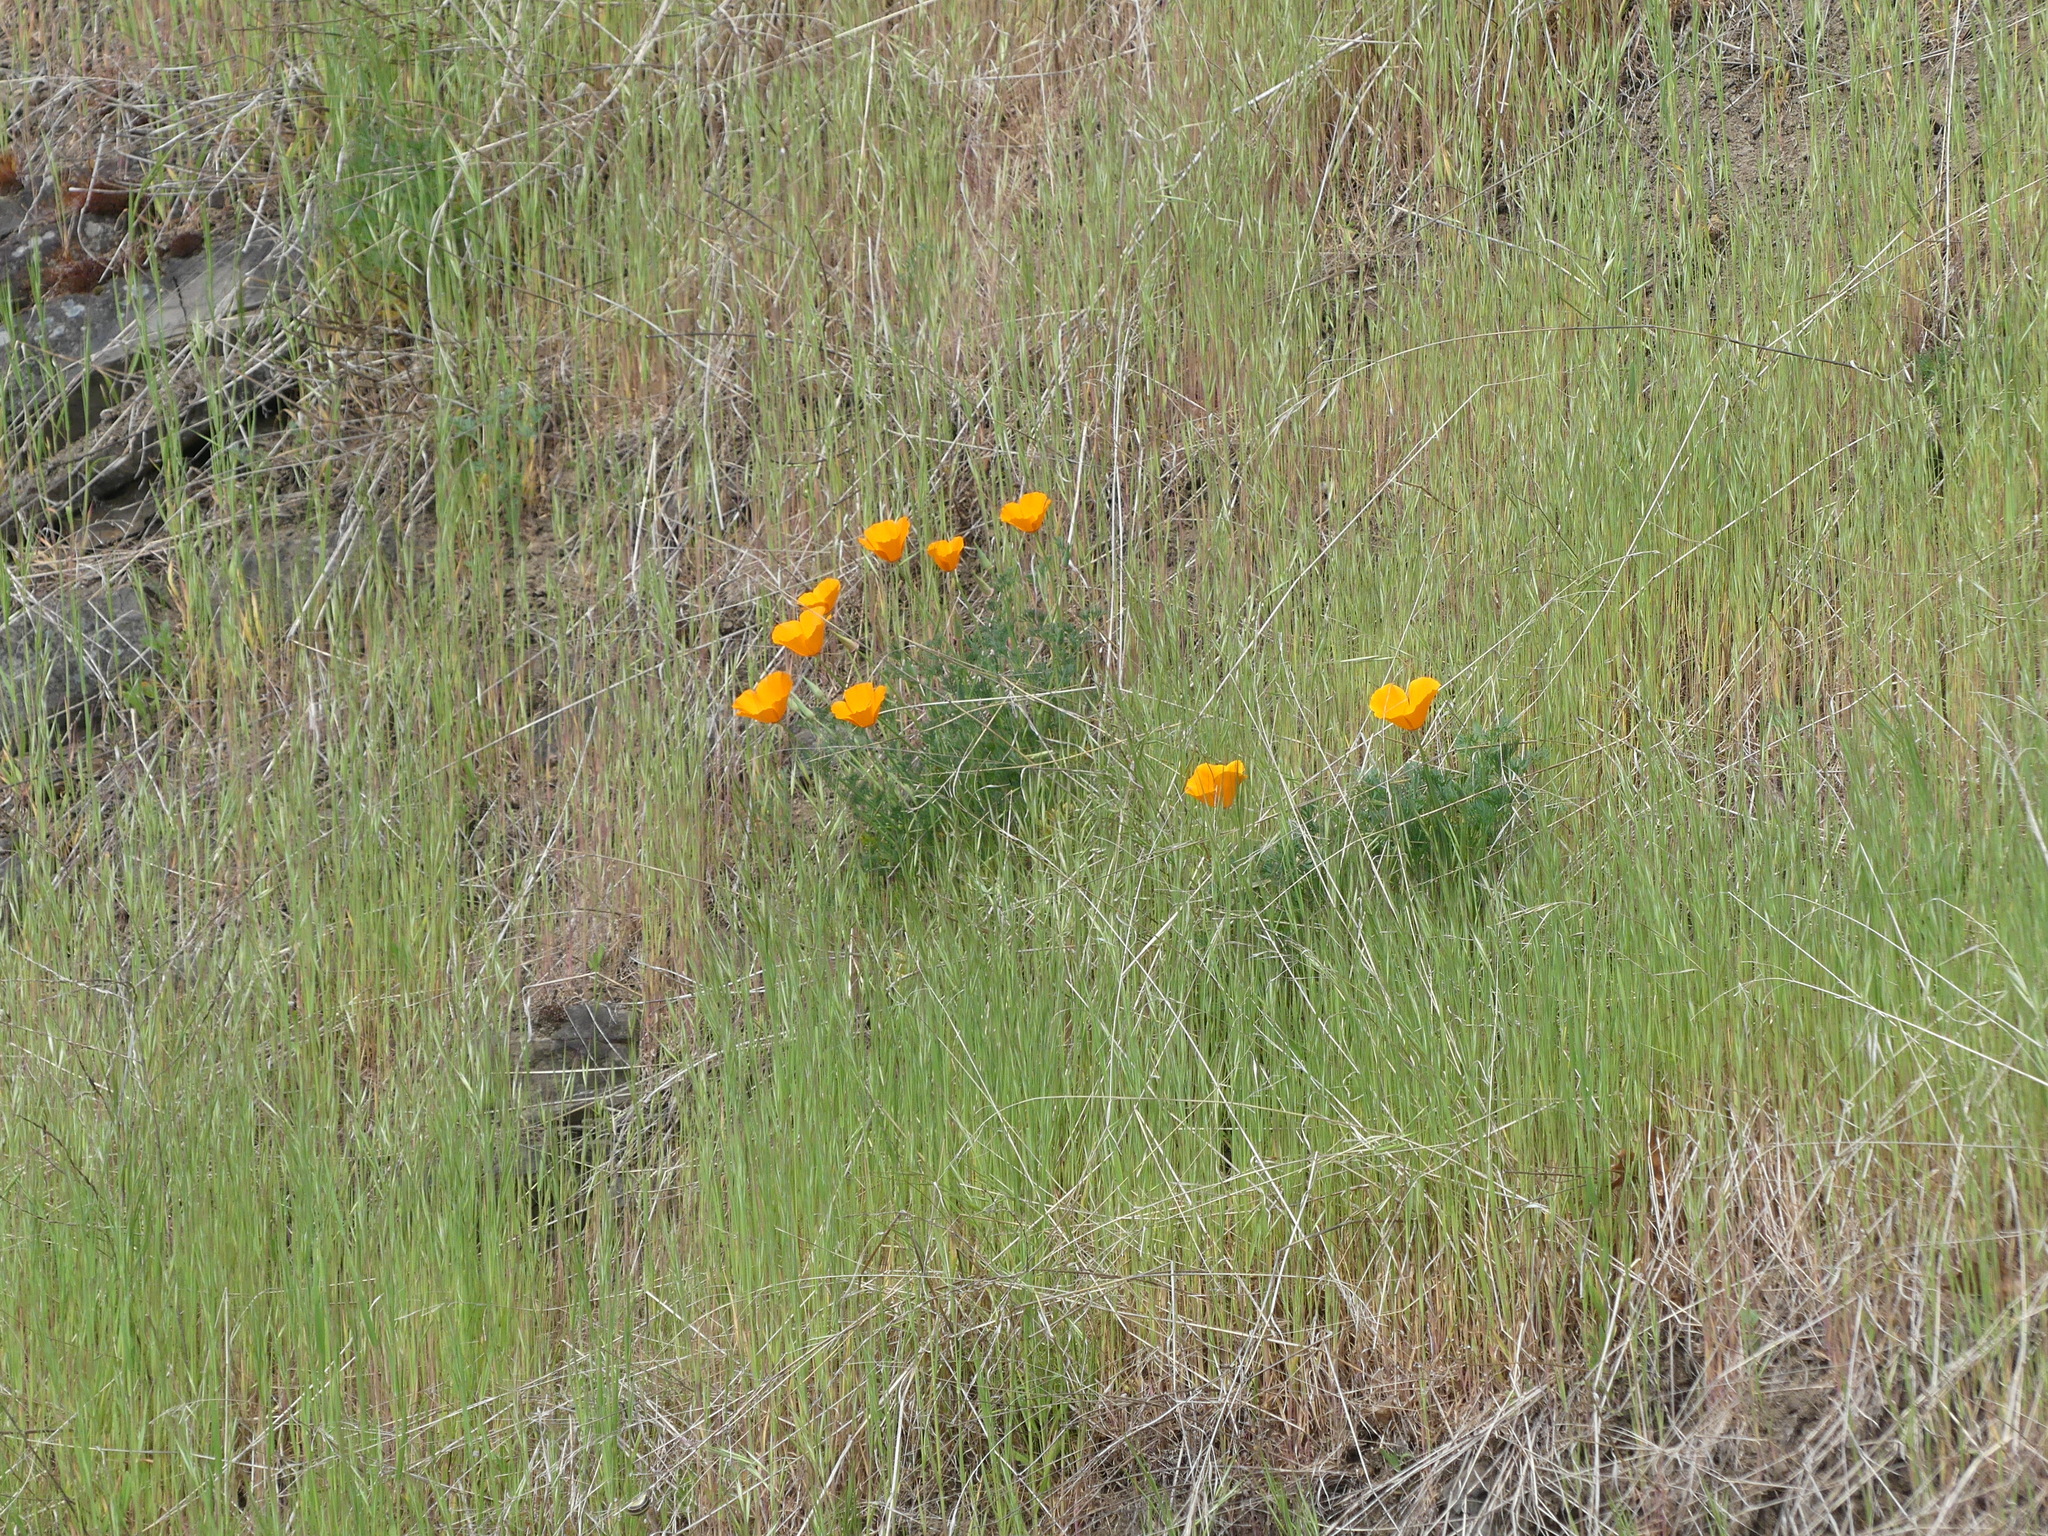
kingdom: Plantae
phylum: Tracheophyta
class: Magnoliopsida
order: Ranunculales
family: Papaveraceae
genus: Eschscholzia
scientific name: Eschscholzia californica
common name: California poppy
